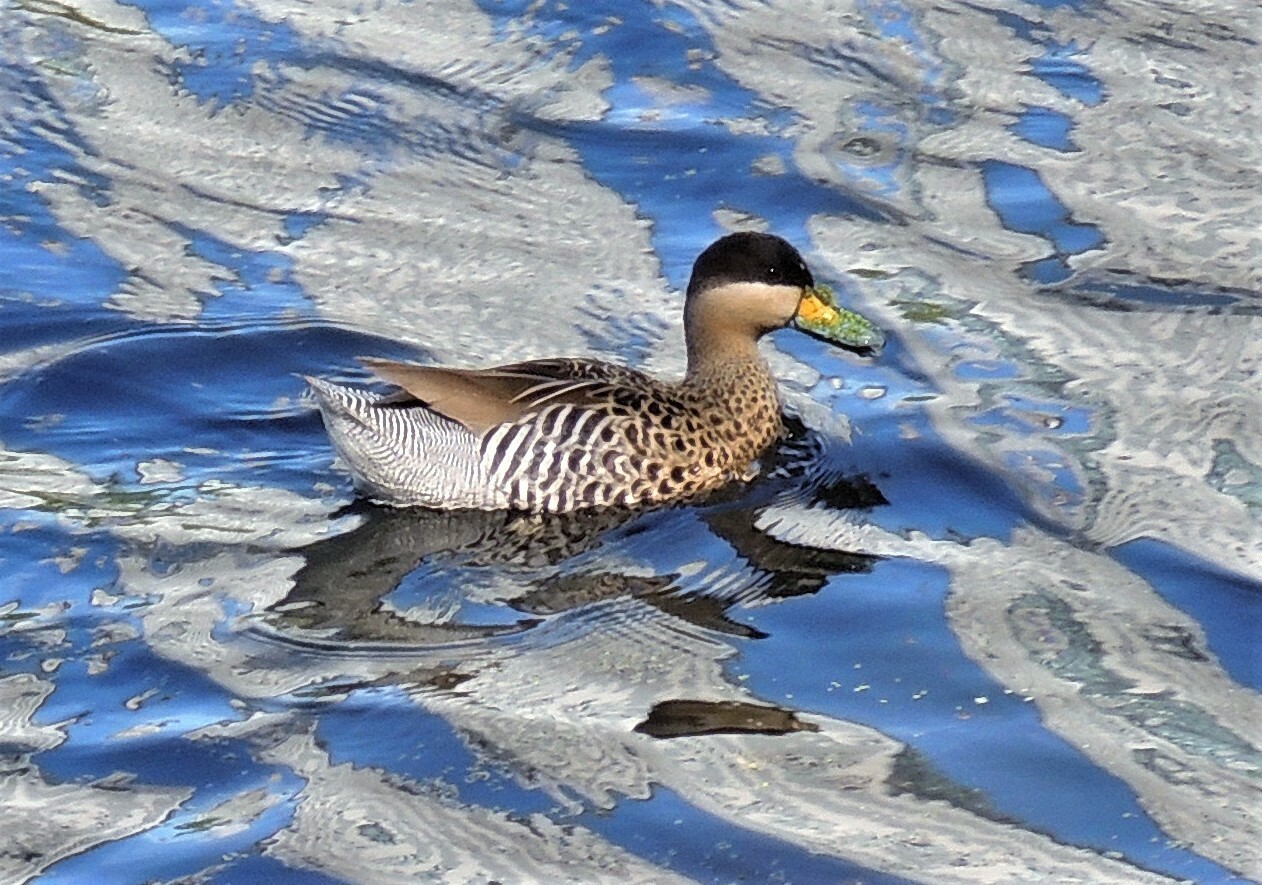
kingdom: Animalia
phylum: Chordata
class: Aves
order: Anseriformes
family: Anatidae
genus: Spatula
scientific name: Spatula versicolor
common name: Silver teal
